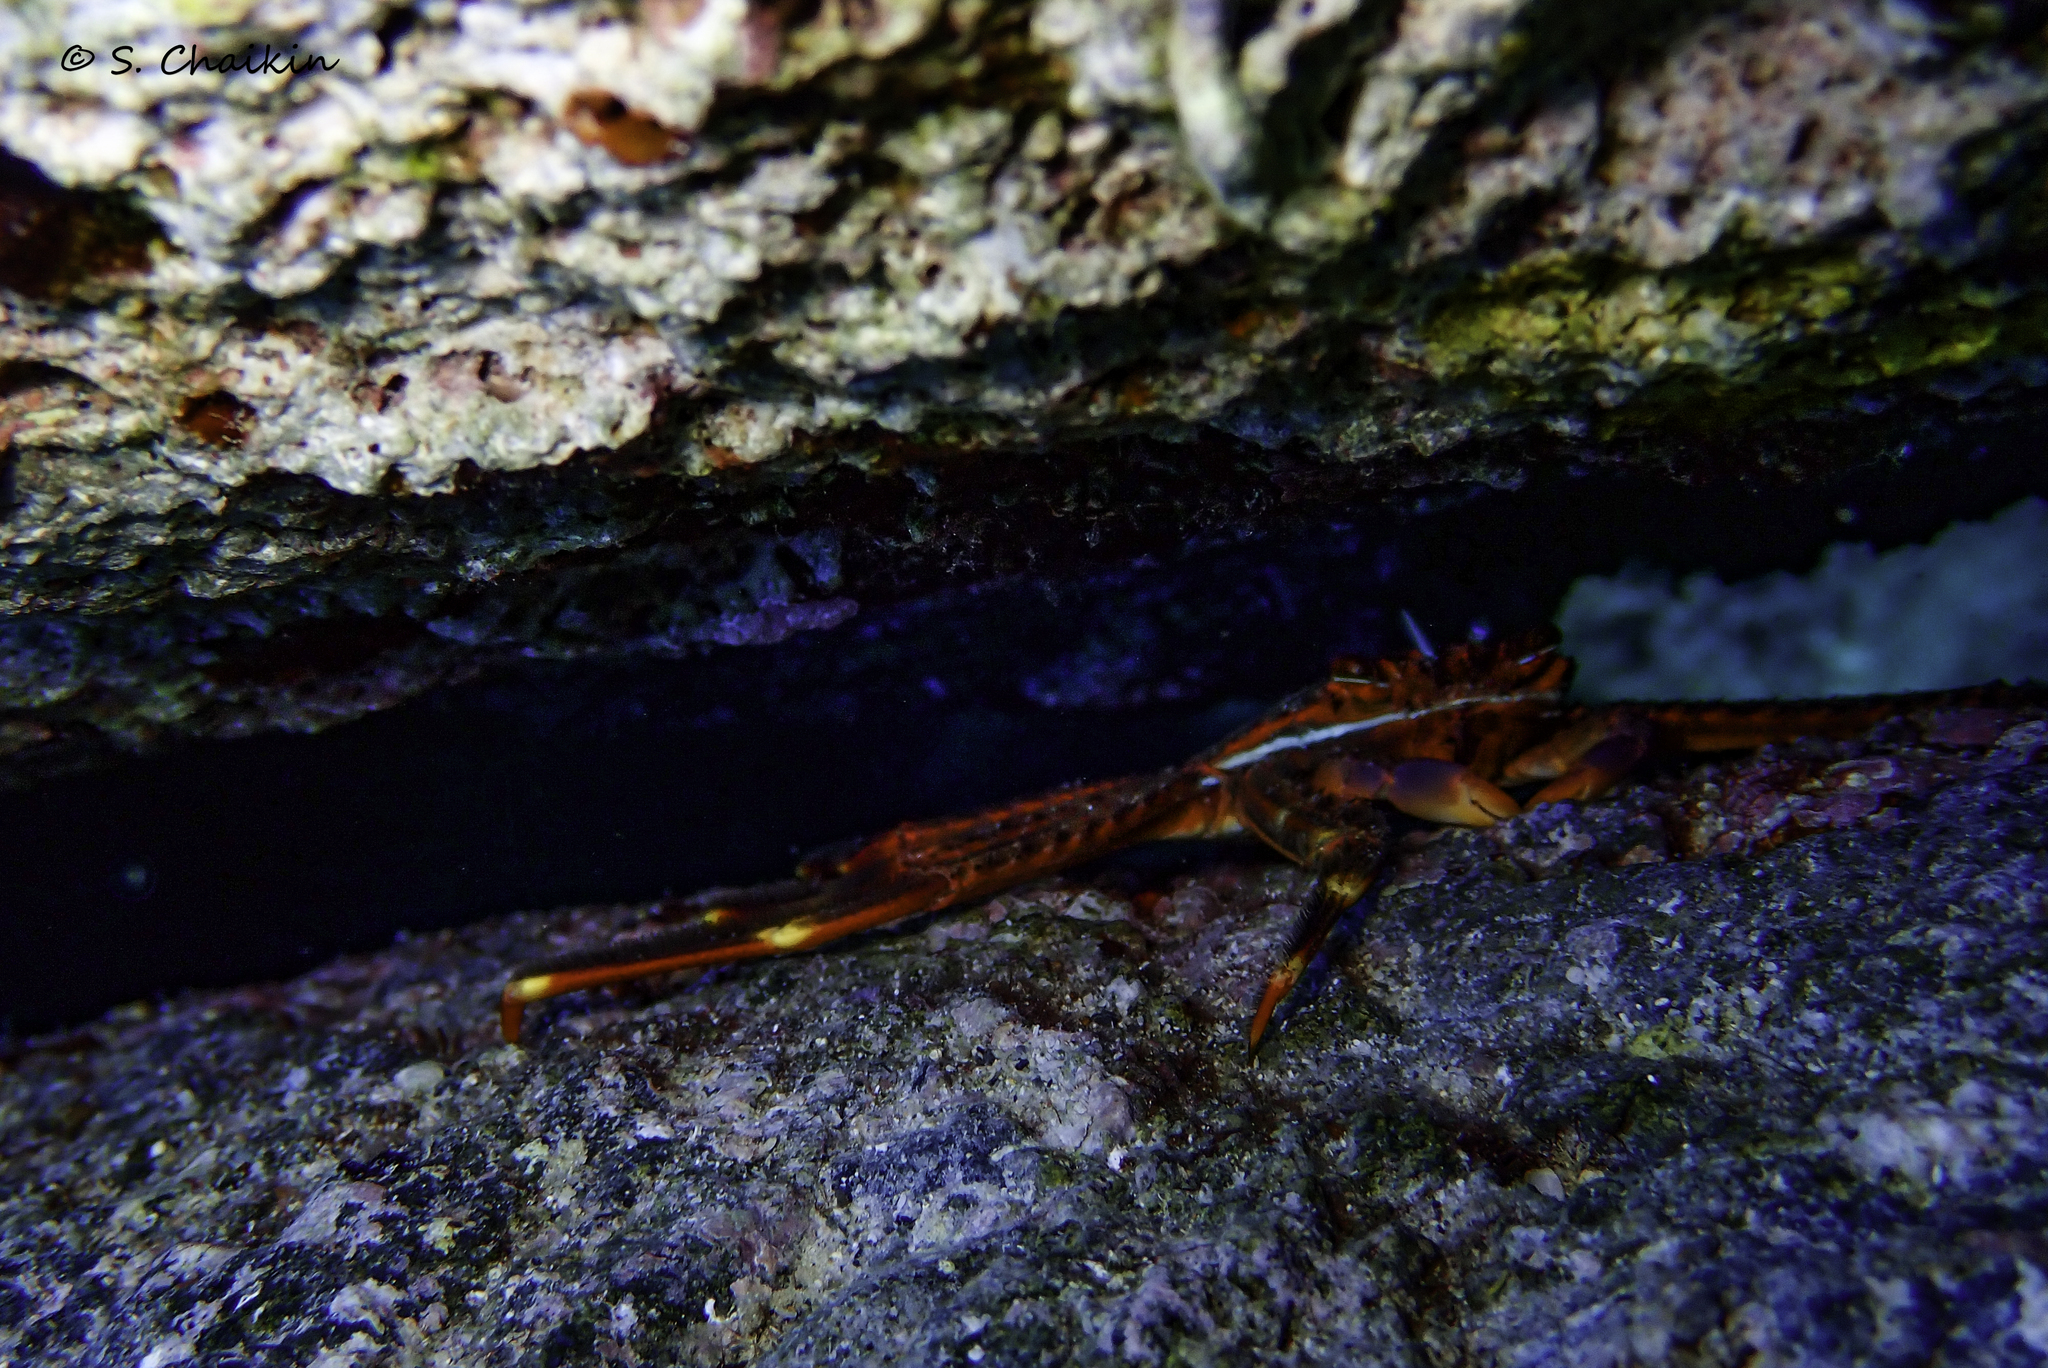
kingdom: Animalia
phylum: Arthropoda
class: Malacostraca
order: Decapoda
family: Percnidae
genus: Percnon
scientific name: Percnon gibbesi
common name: Nimble spray crab
